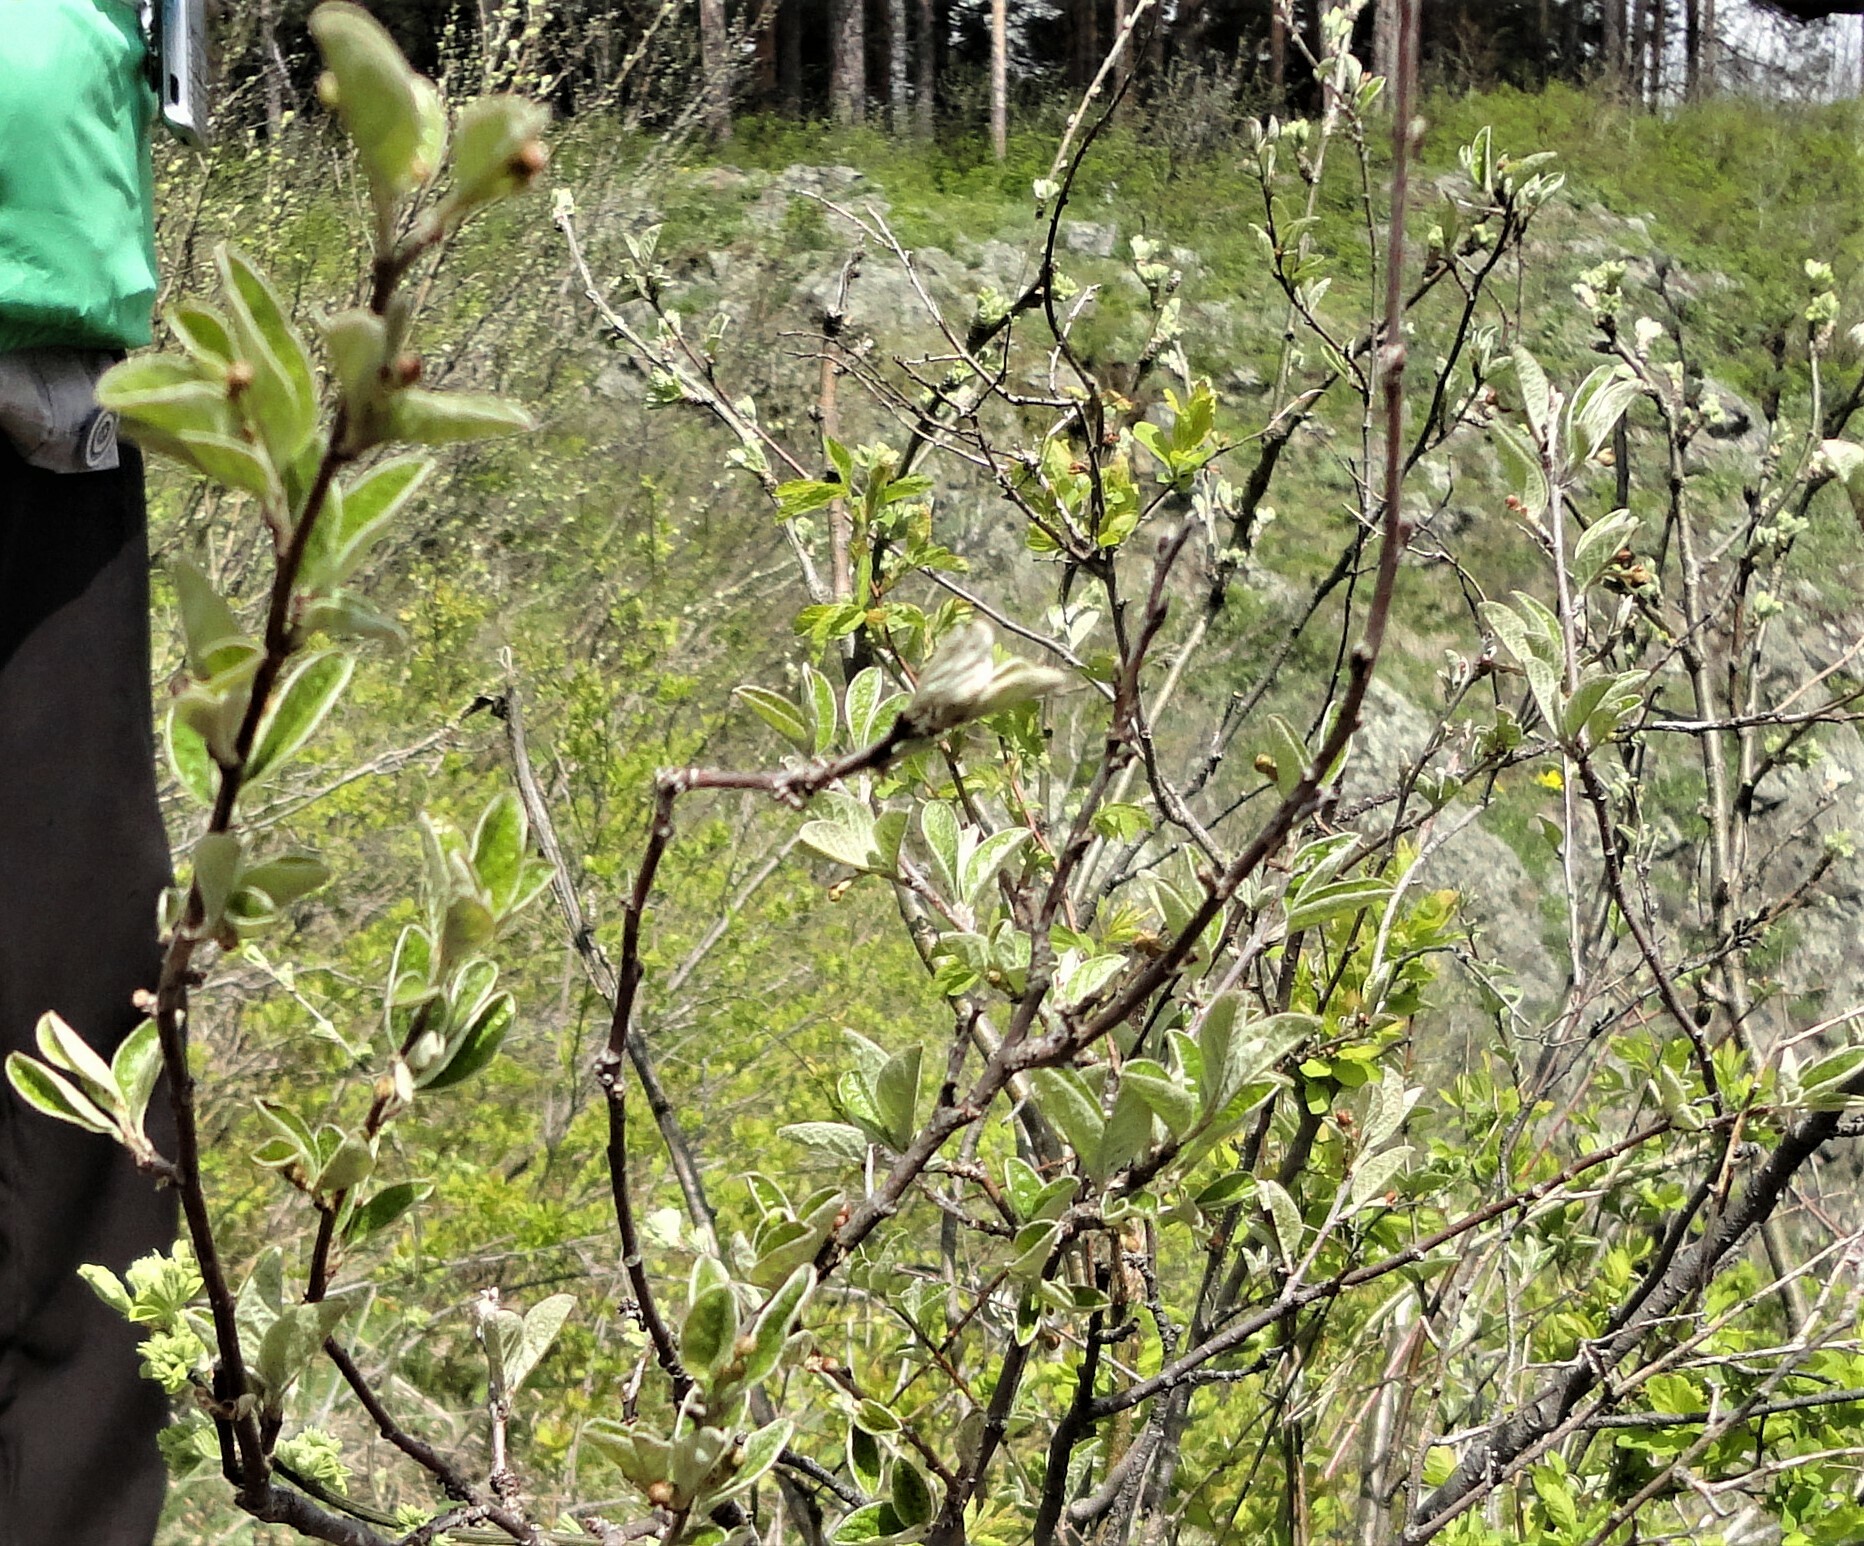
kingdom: Plantae
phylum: Tracheophyta
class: Magnoliopsida
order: Rosales
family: Rosaceae
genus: Cotoneaster
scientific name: Cotoneaster melanocarpus
